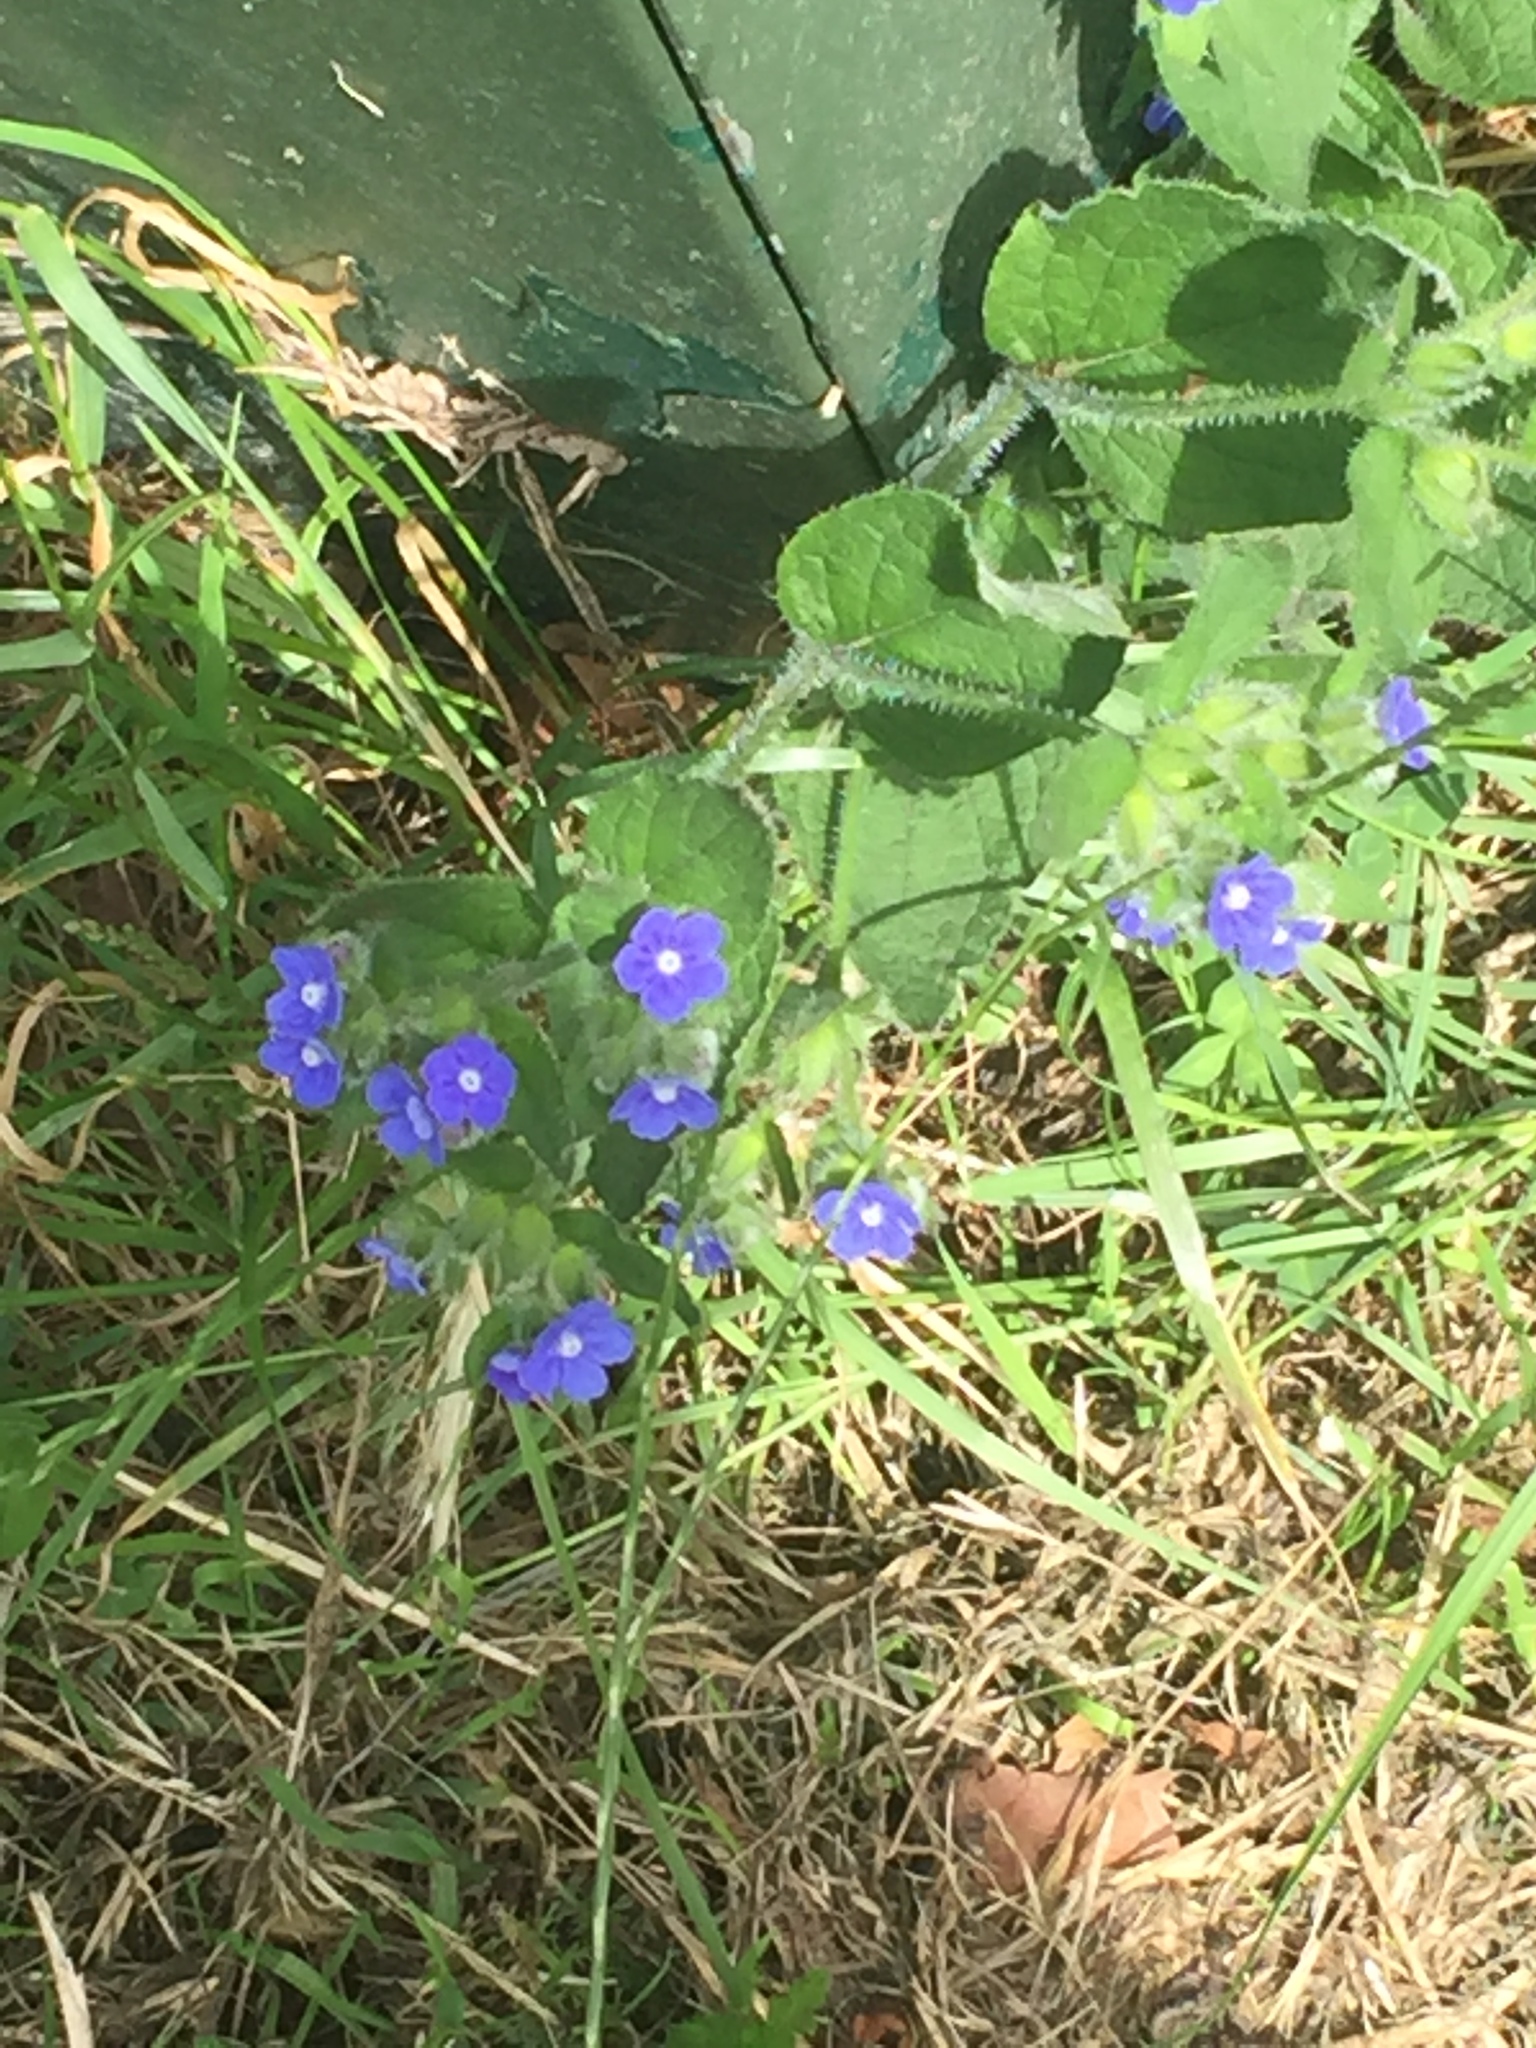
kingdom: Plantae
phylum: Tracheophyta
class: Magnoliopsida
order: Boraginales
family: Boraginaceae
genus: Pentaglottis
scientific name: Pentaglottis sempervirens
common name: Green alkanet
